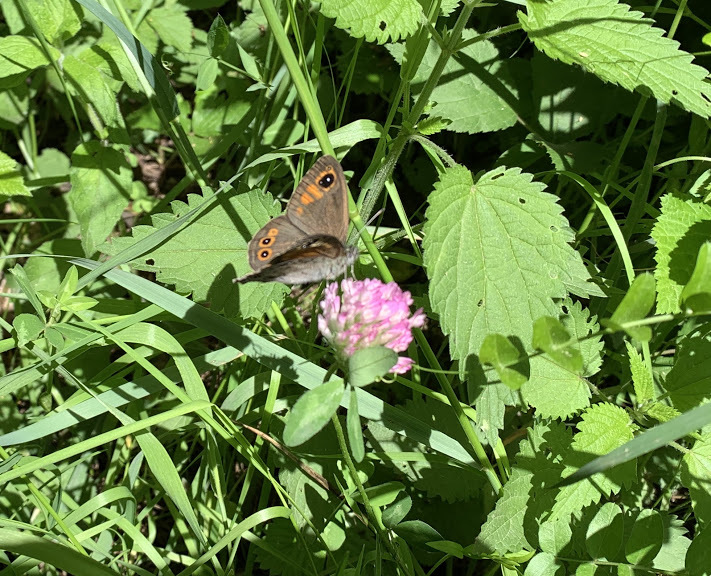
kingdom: Animalia
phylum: Arthropoda
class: Insecta
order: Lepidoptera
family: Nymphalidae
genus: Pararge
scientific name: Pararge Lasiommata maera
